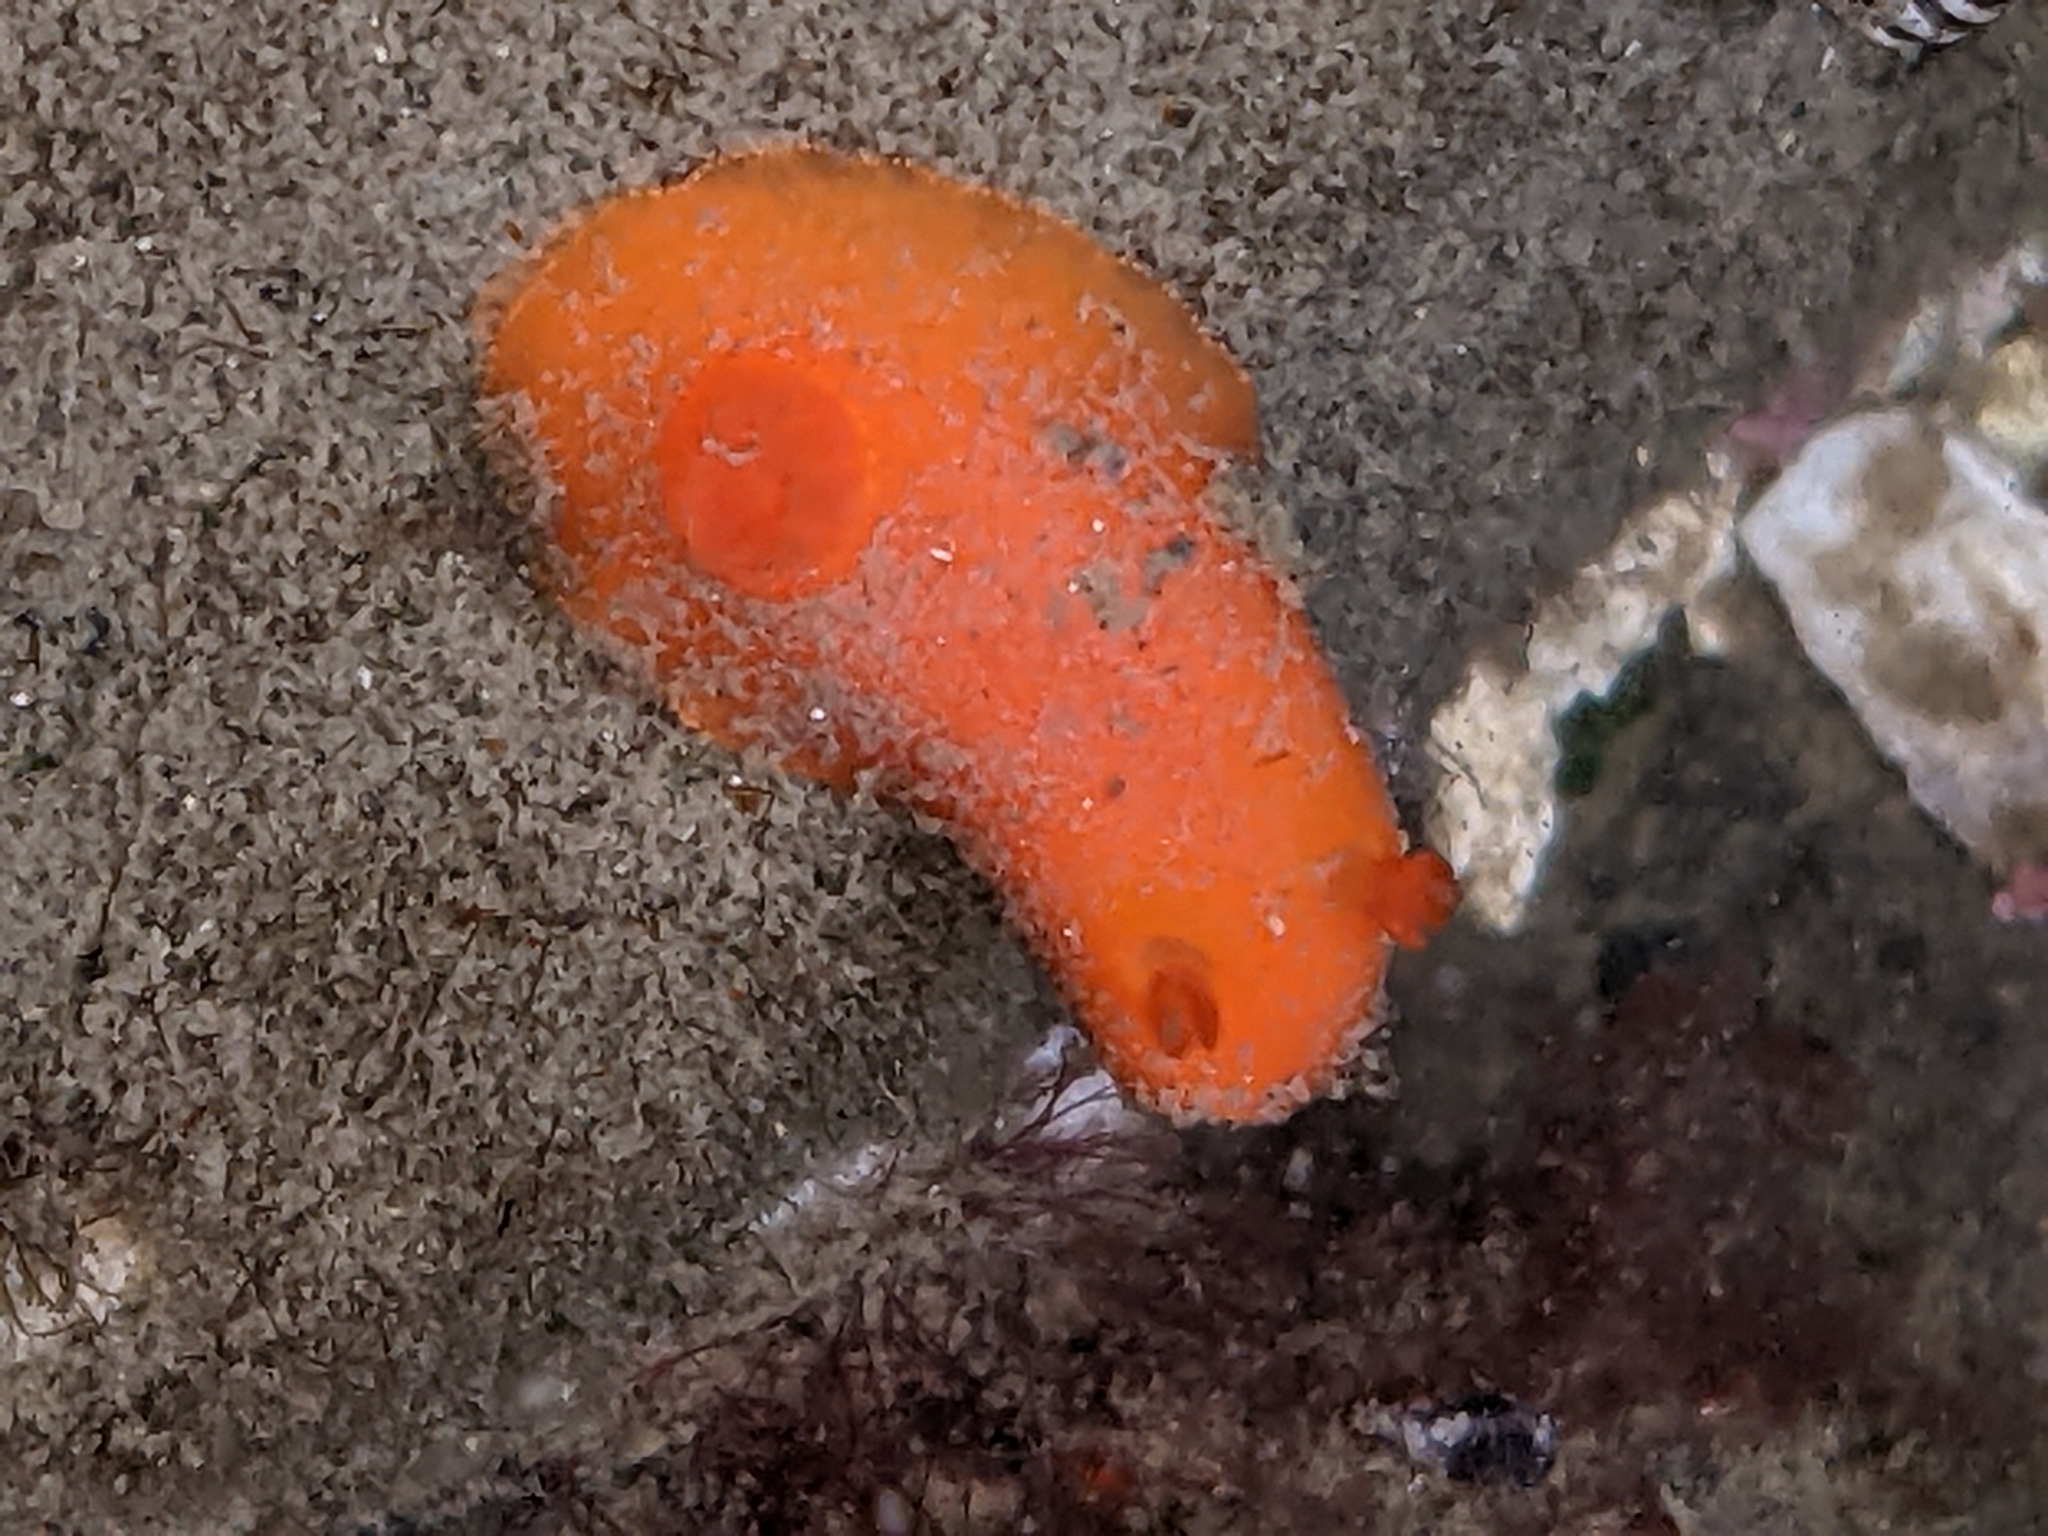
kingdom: Animalia
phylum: Mollusca
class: Gastropoda
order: Nudibranchia
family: Discodorididae
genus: Rostanga
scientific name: Rostanga pulchra
